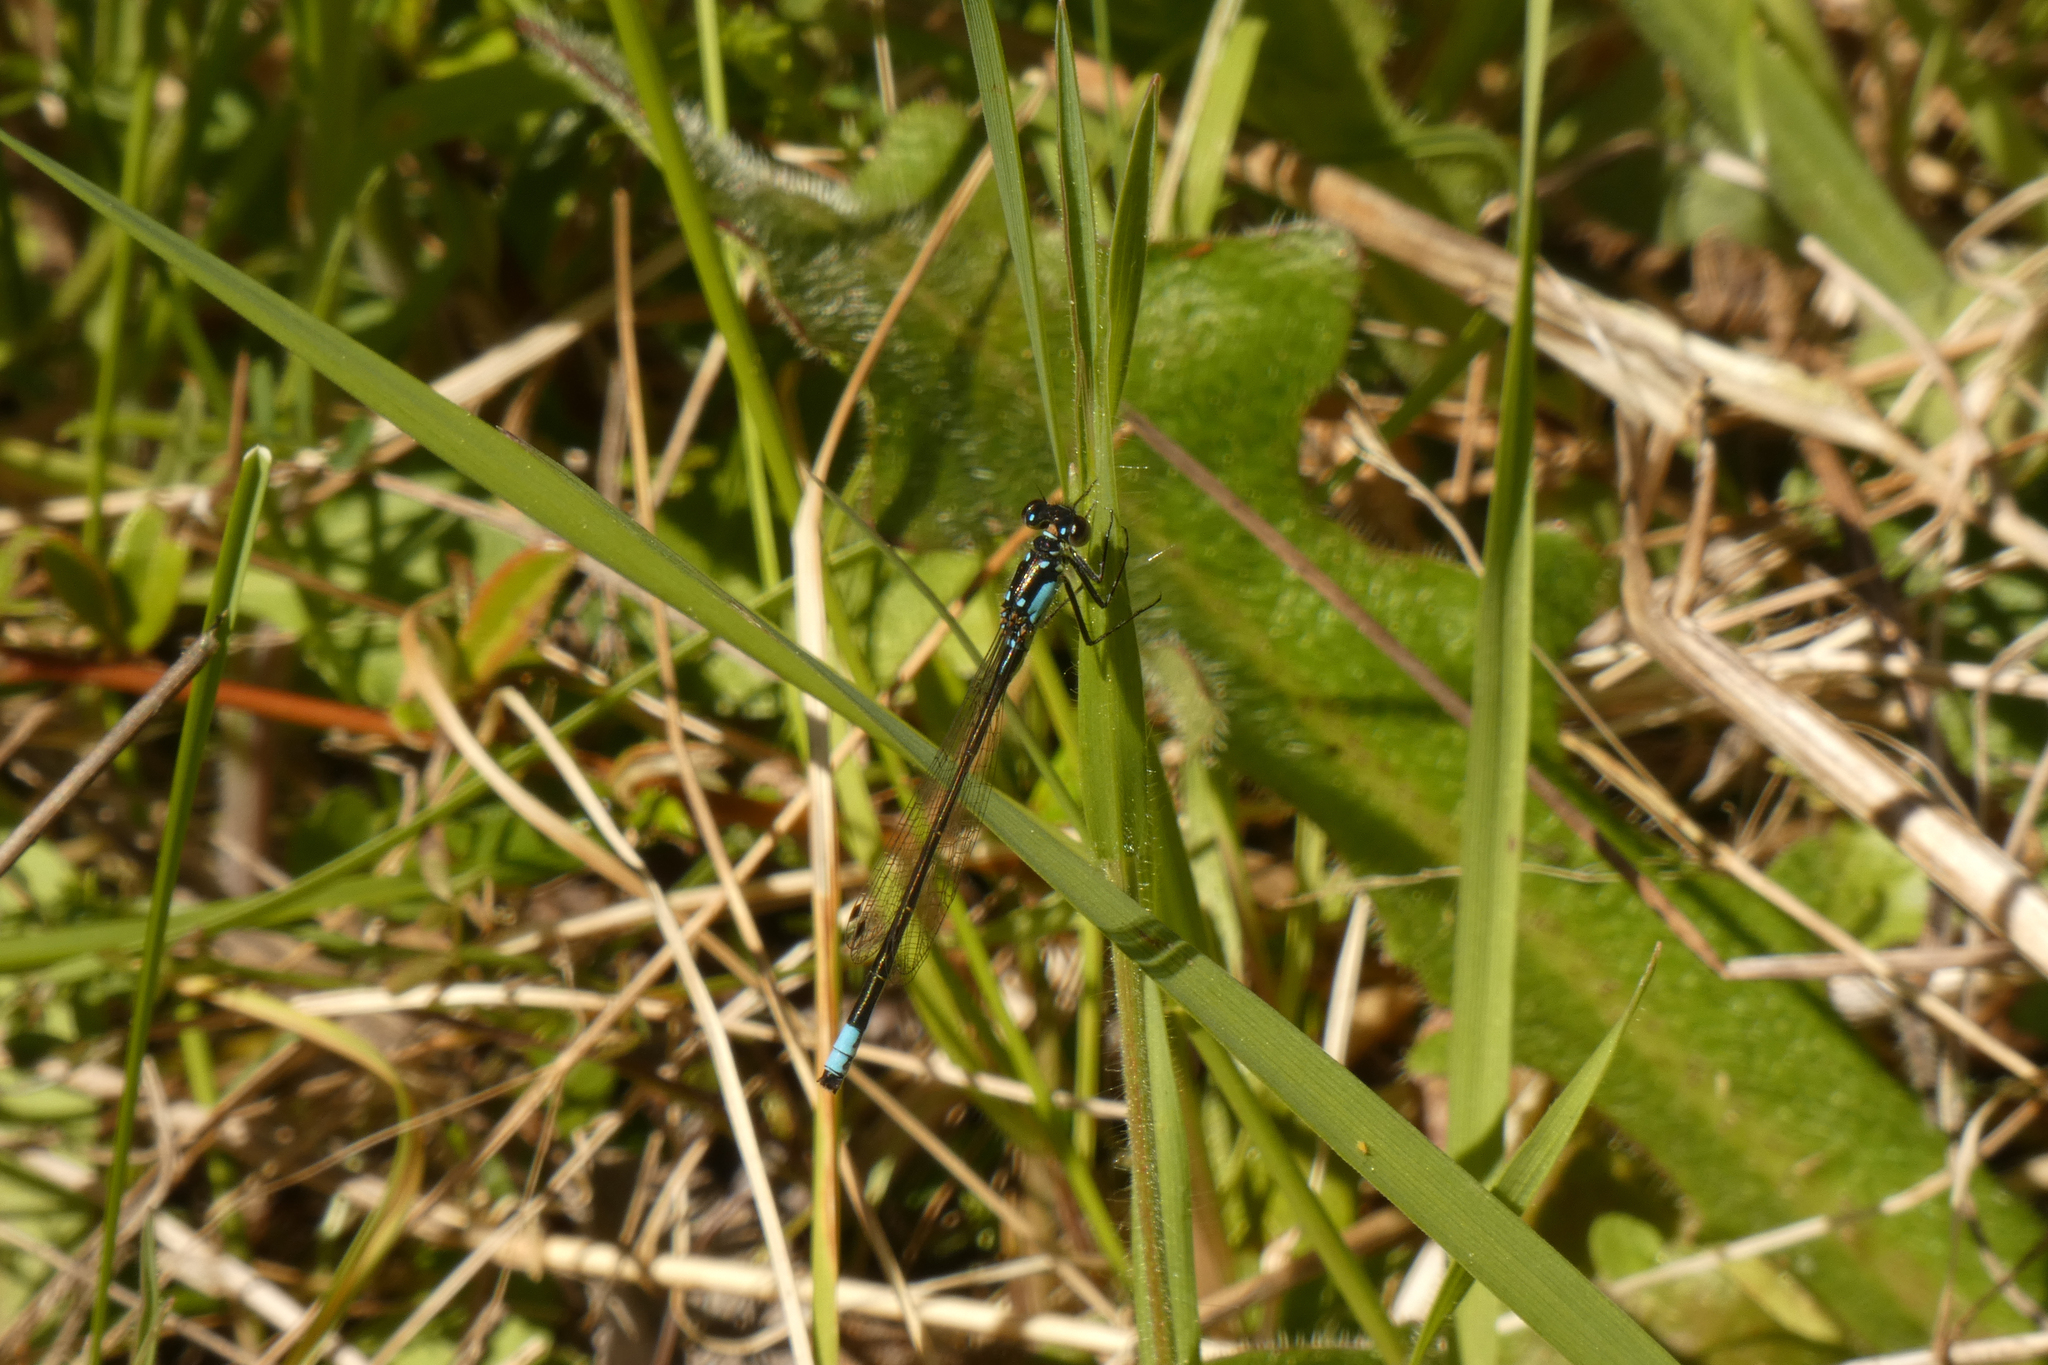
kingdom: Animalia
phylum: Arthropoda
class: Insecta
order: Odonata
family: Coenagrionidae
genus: Ischnura
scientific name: Ischnura cervula
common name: Pacific forktail
